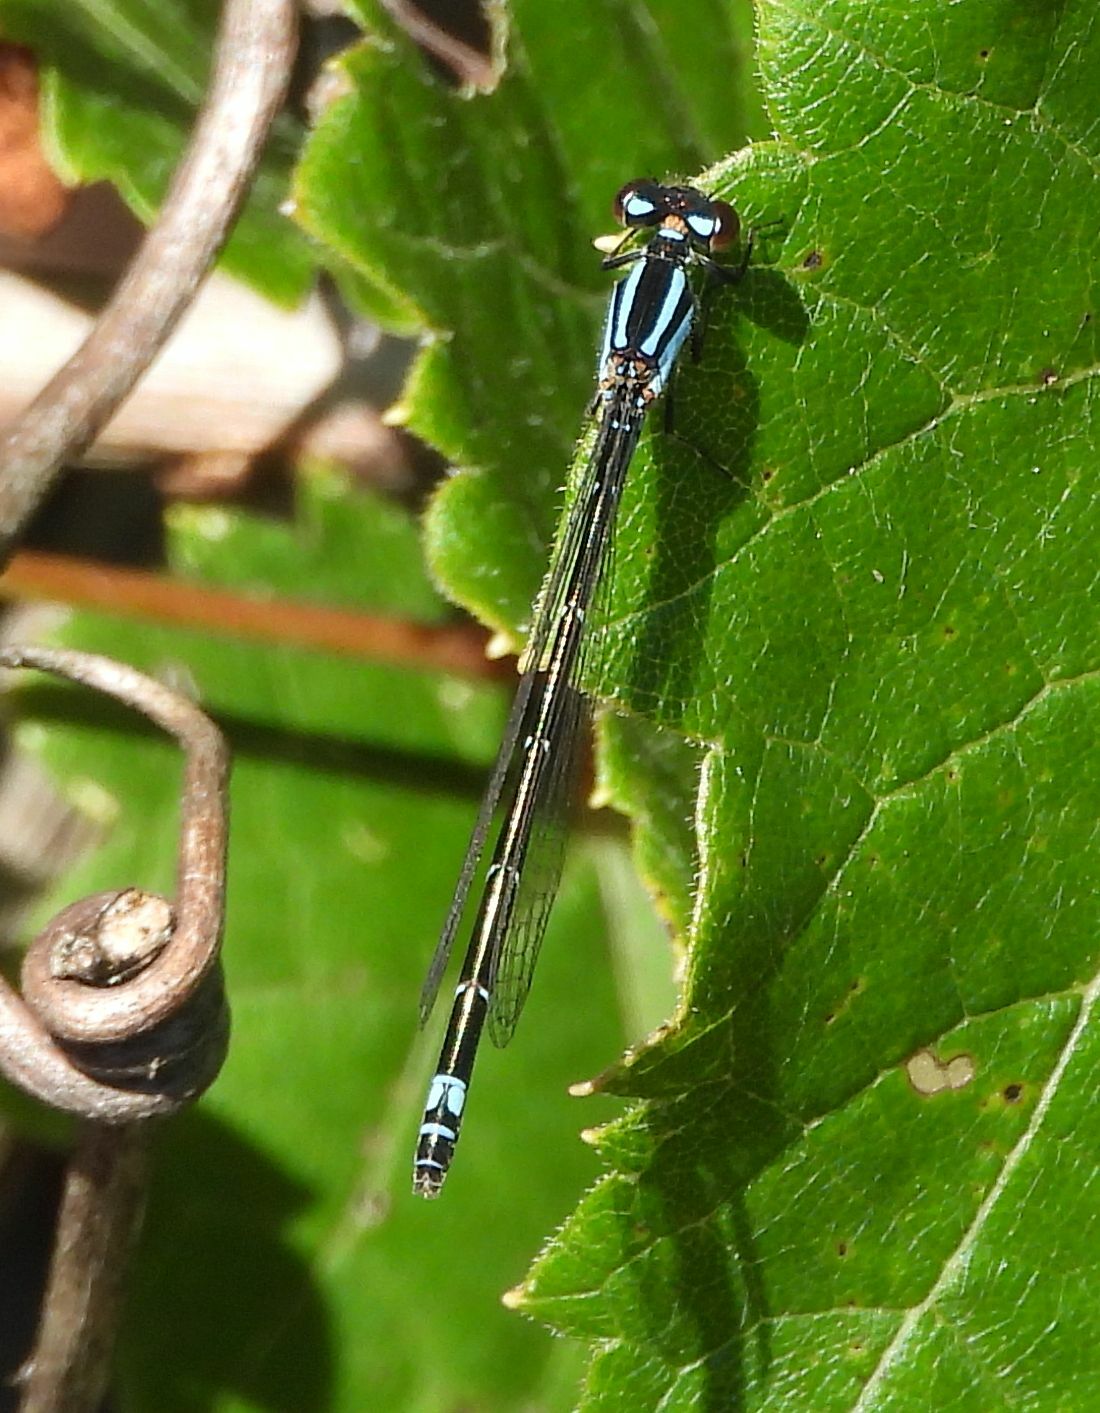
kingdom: Animalia
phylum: Arthropoda
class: Insecta
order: Odonata
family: Coenagrionidae
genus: Enallagma
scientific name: Enallagma geminatum
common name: Skimming bluet
